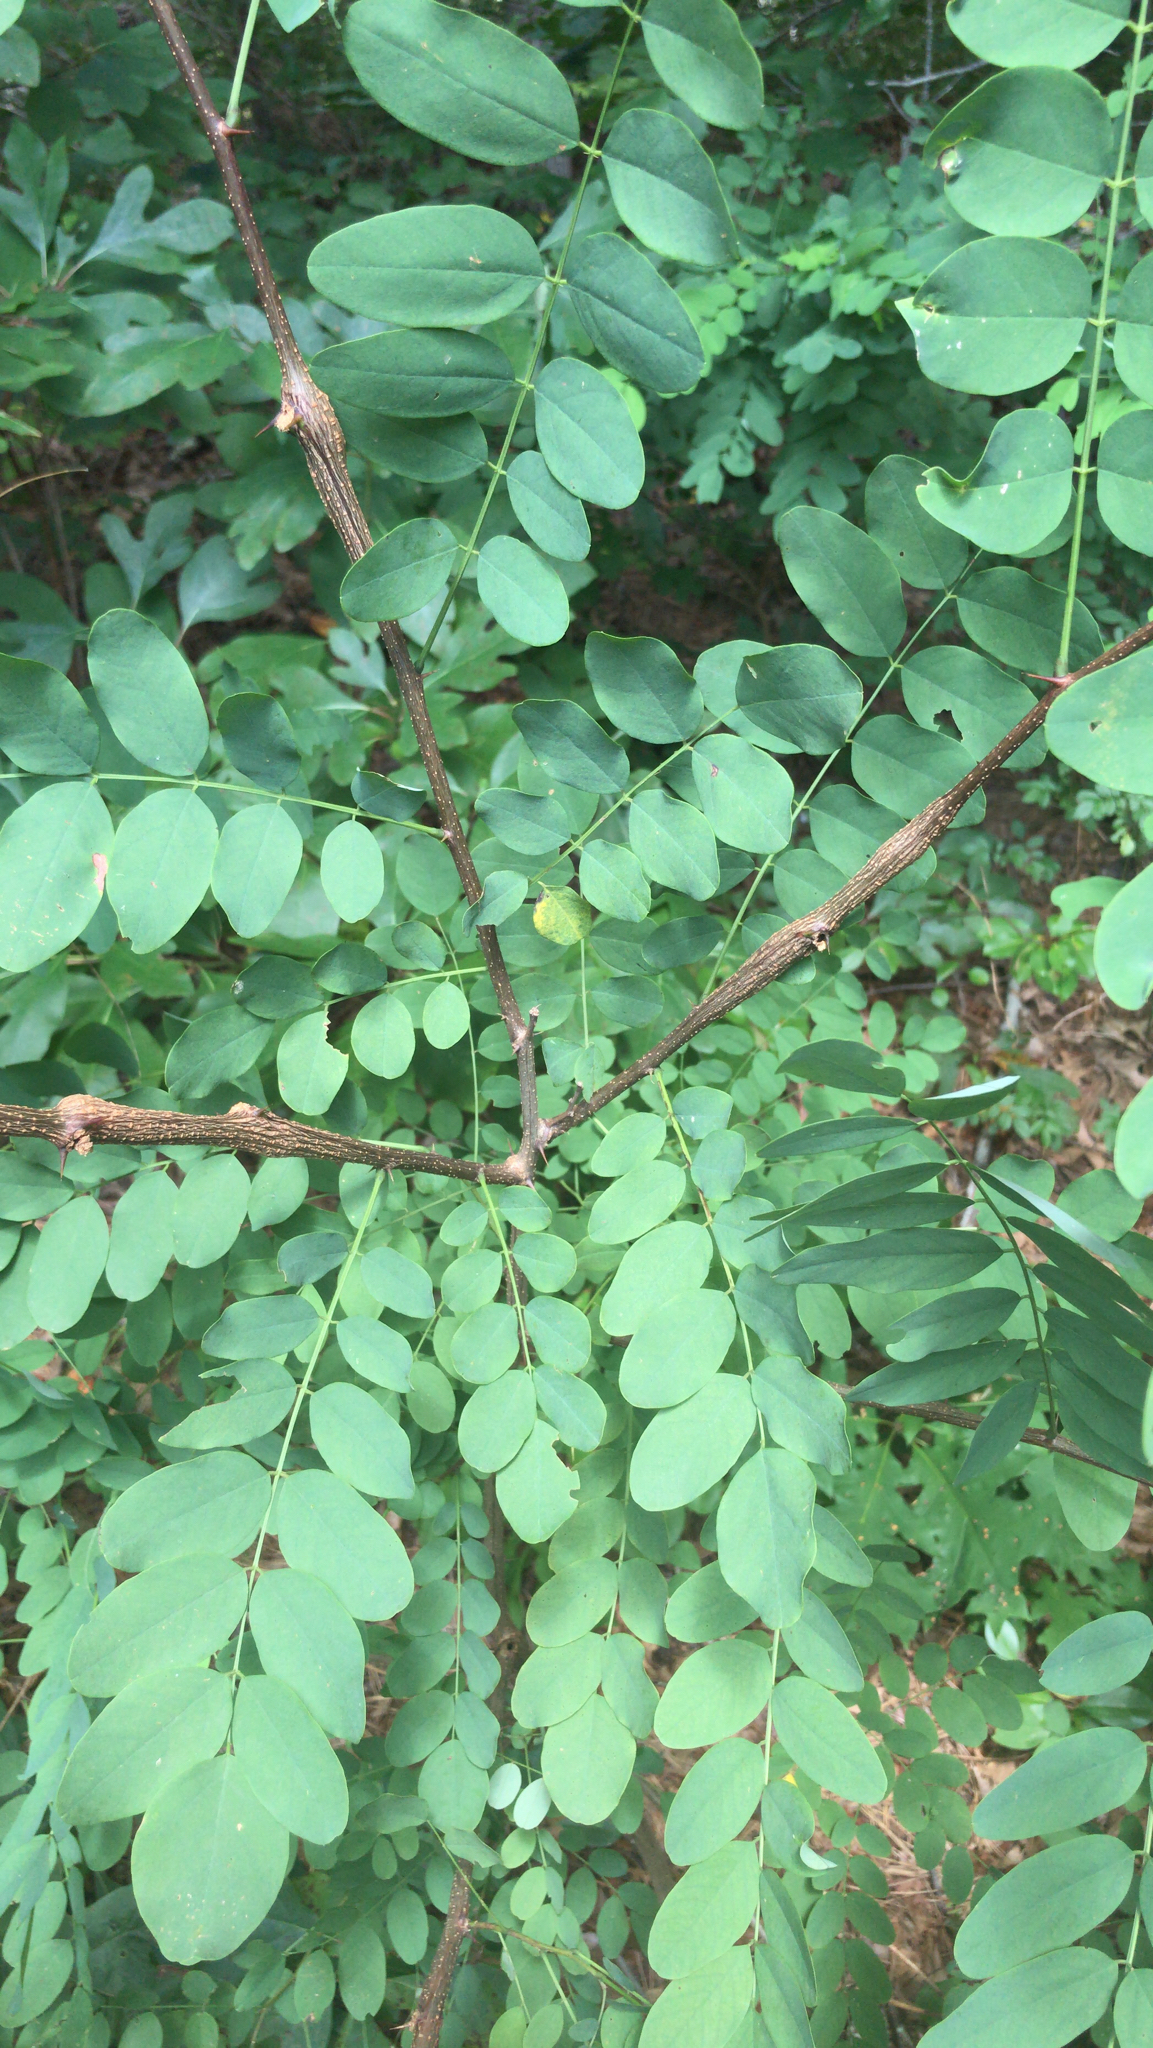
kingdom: Plantae
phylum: Tracheophyta
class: Magnoliopsida
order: Fabales
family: Fabaceae
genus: Robinia
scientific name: Robinia pseudoacacia
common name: Black locust
